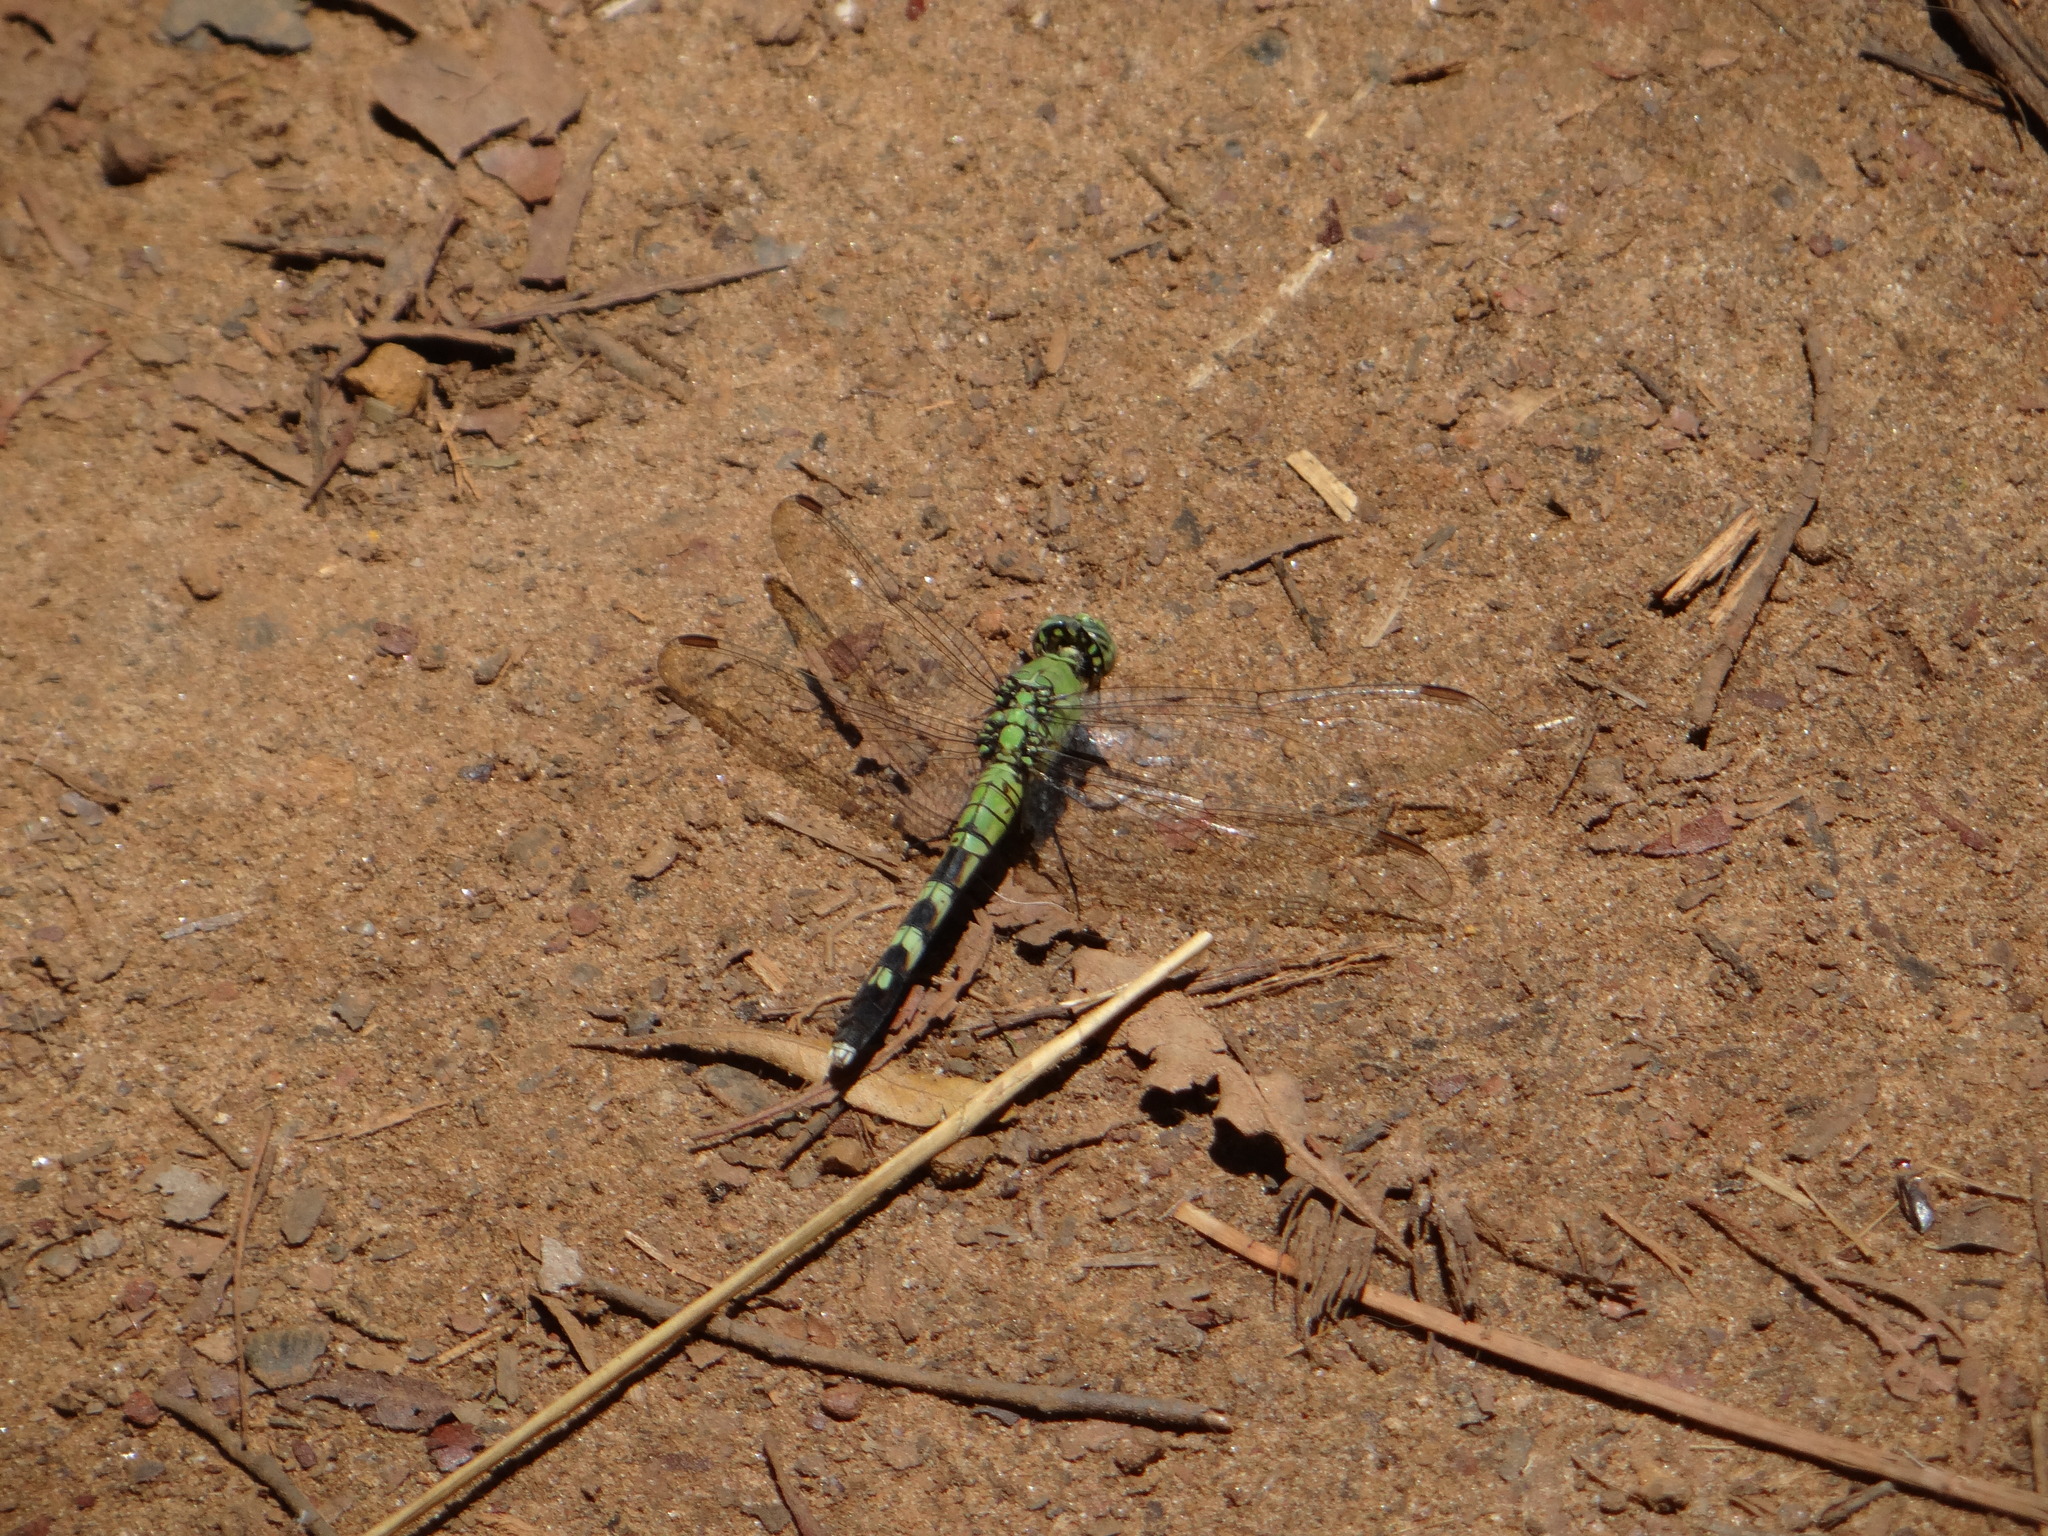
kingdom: Animalia
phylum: Arthropoda
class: Insecta
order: Odonata
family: Libellulidae
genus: Erythemis
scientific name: Erythemis simplicicollis
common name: Eastern pondhawk
